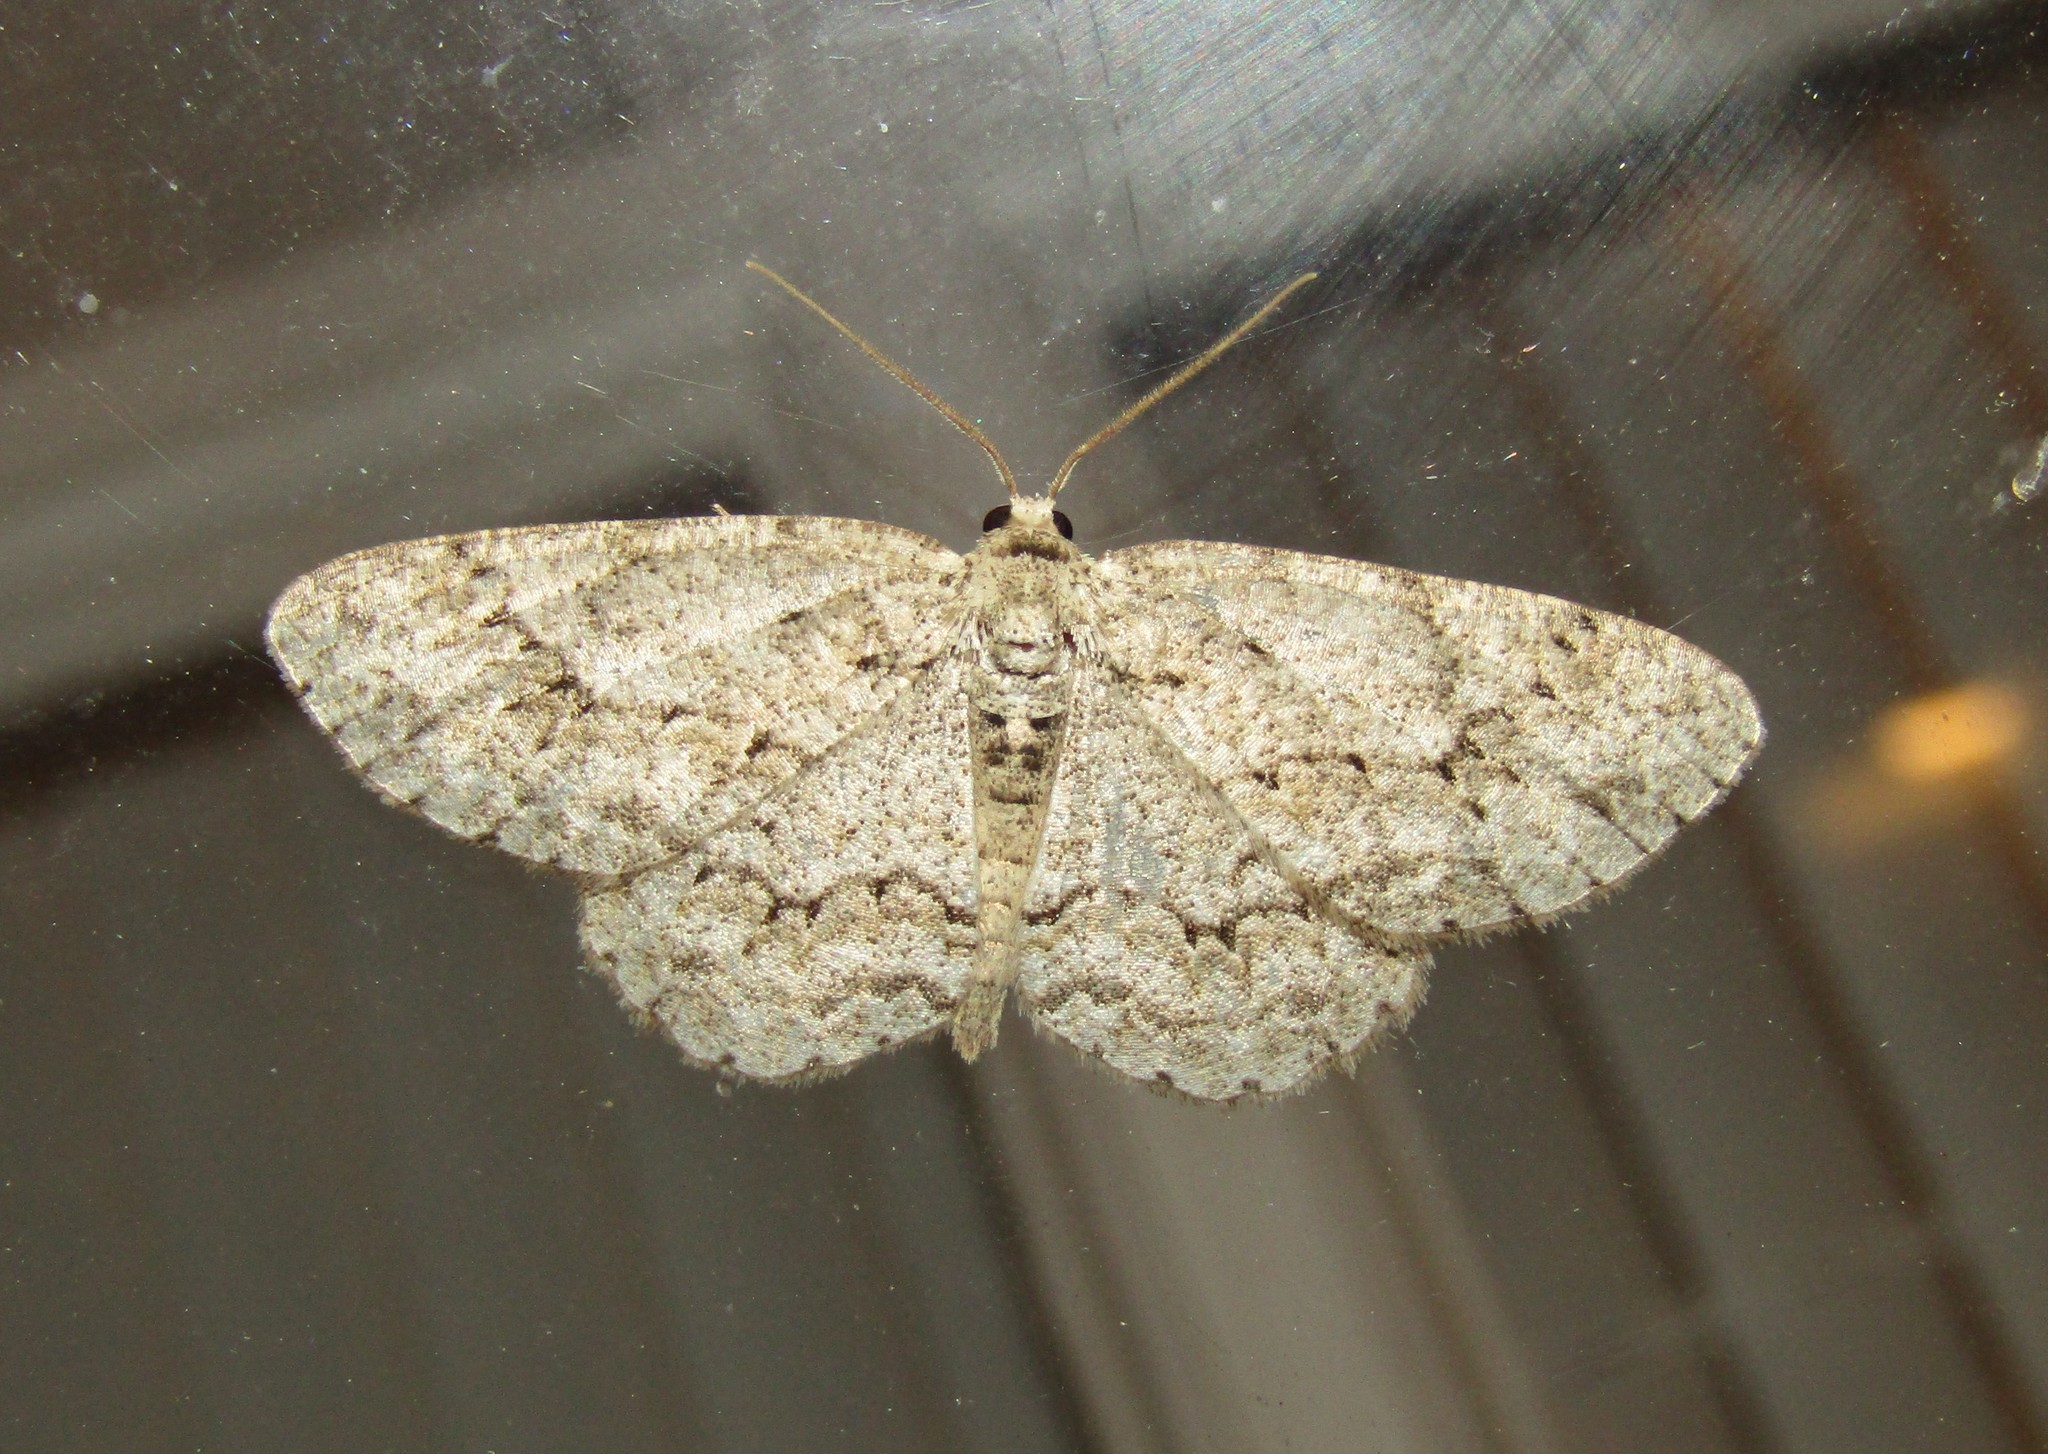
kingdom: Animalia
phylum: Arthropoda
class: Insecta
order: Lepidoptera
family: Geometridae
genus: Ectropis
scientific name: Ectropis crepuscularia
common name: Engrailed
